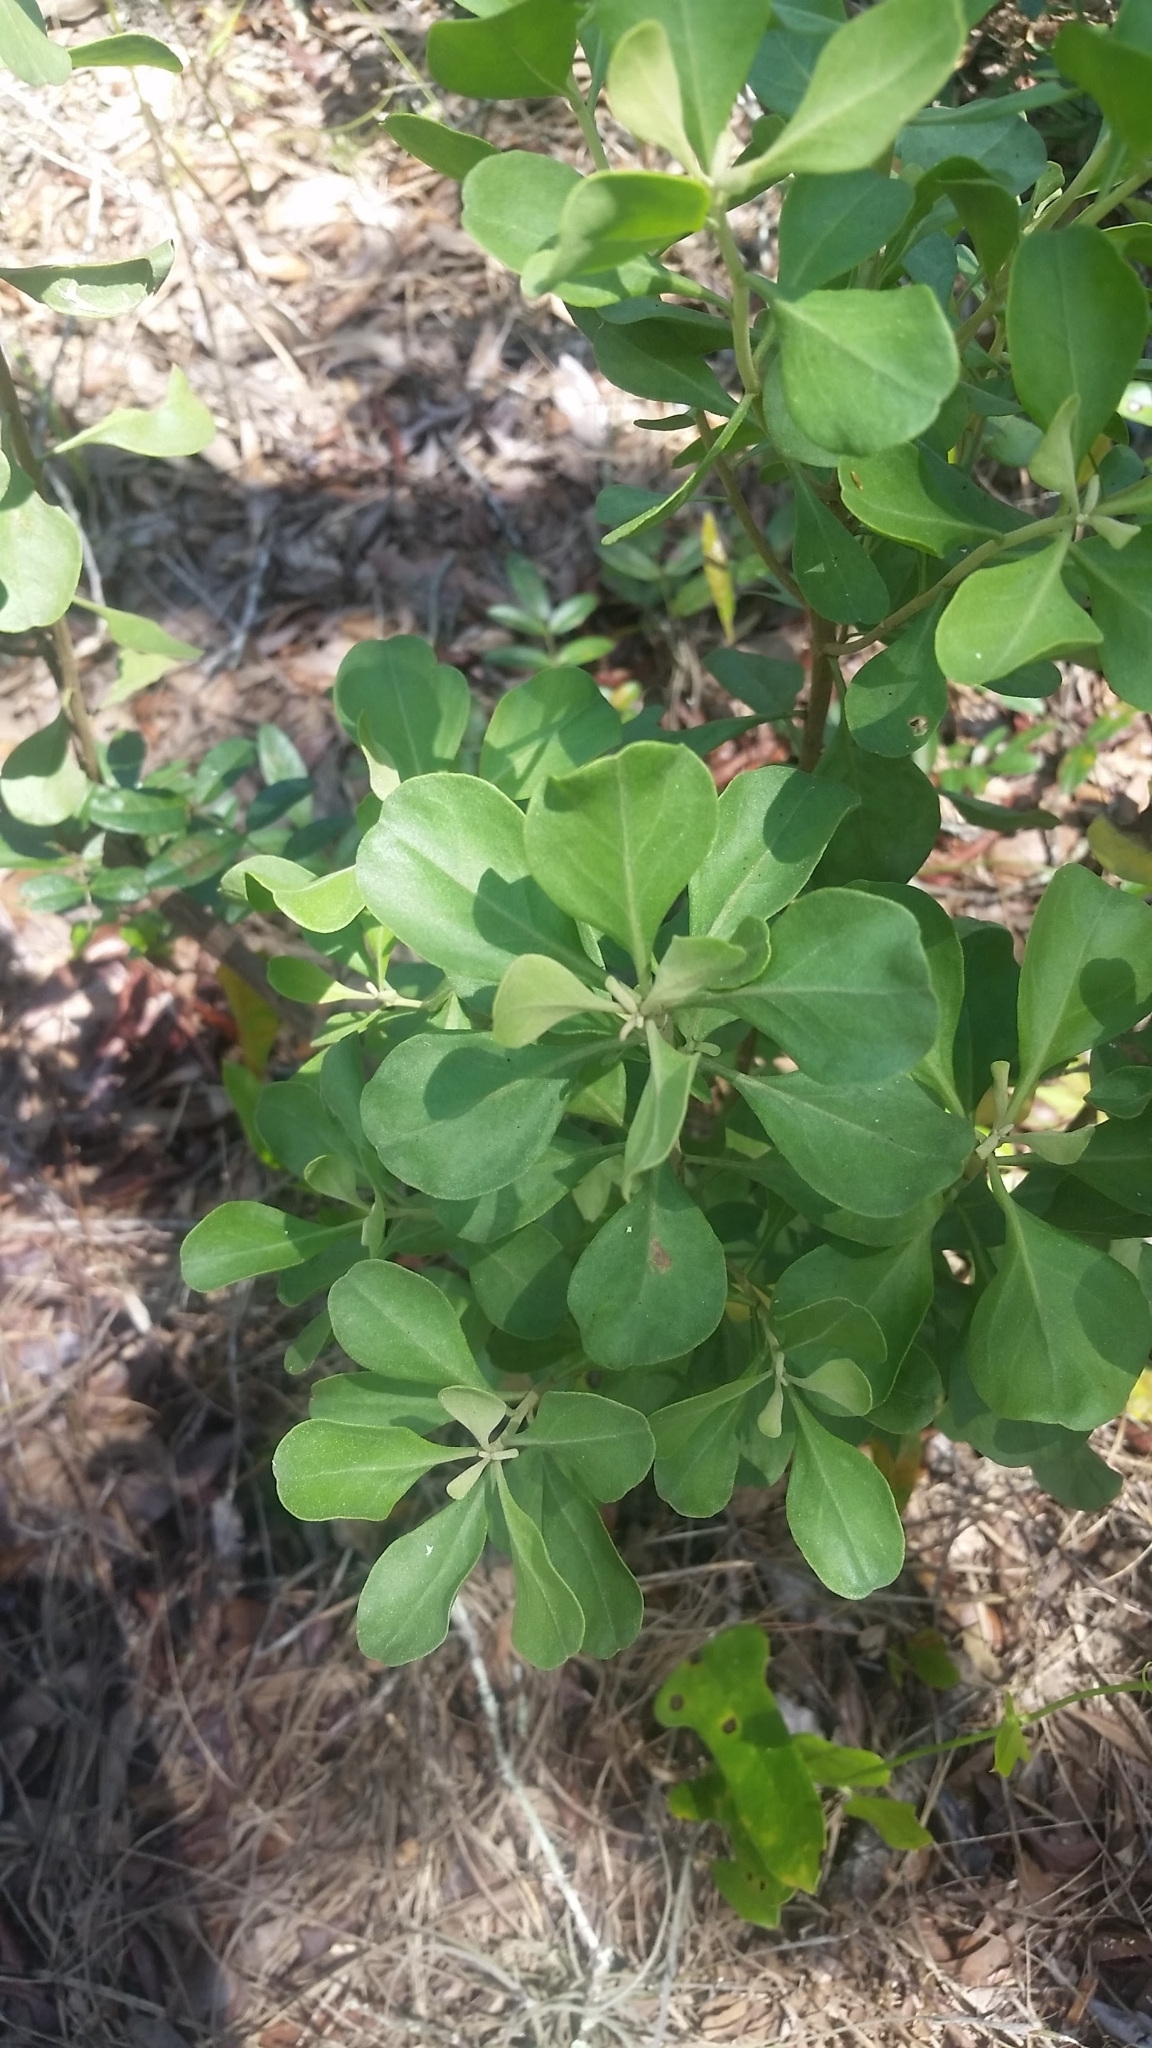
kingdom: Plantae
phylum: Tracheophyta
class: Magnoliopsida
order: Asterales
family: Asteraceae
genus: Garberia
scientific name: Garberia heterophylla
